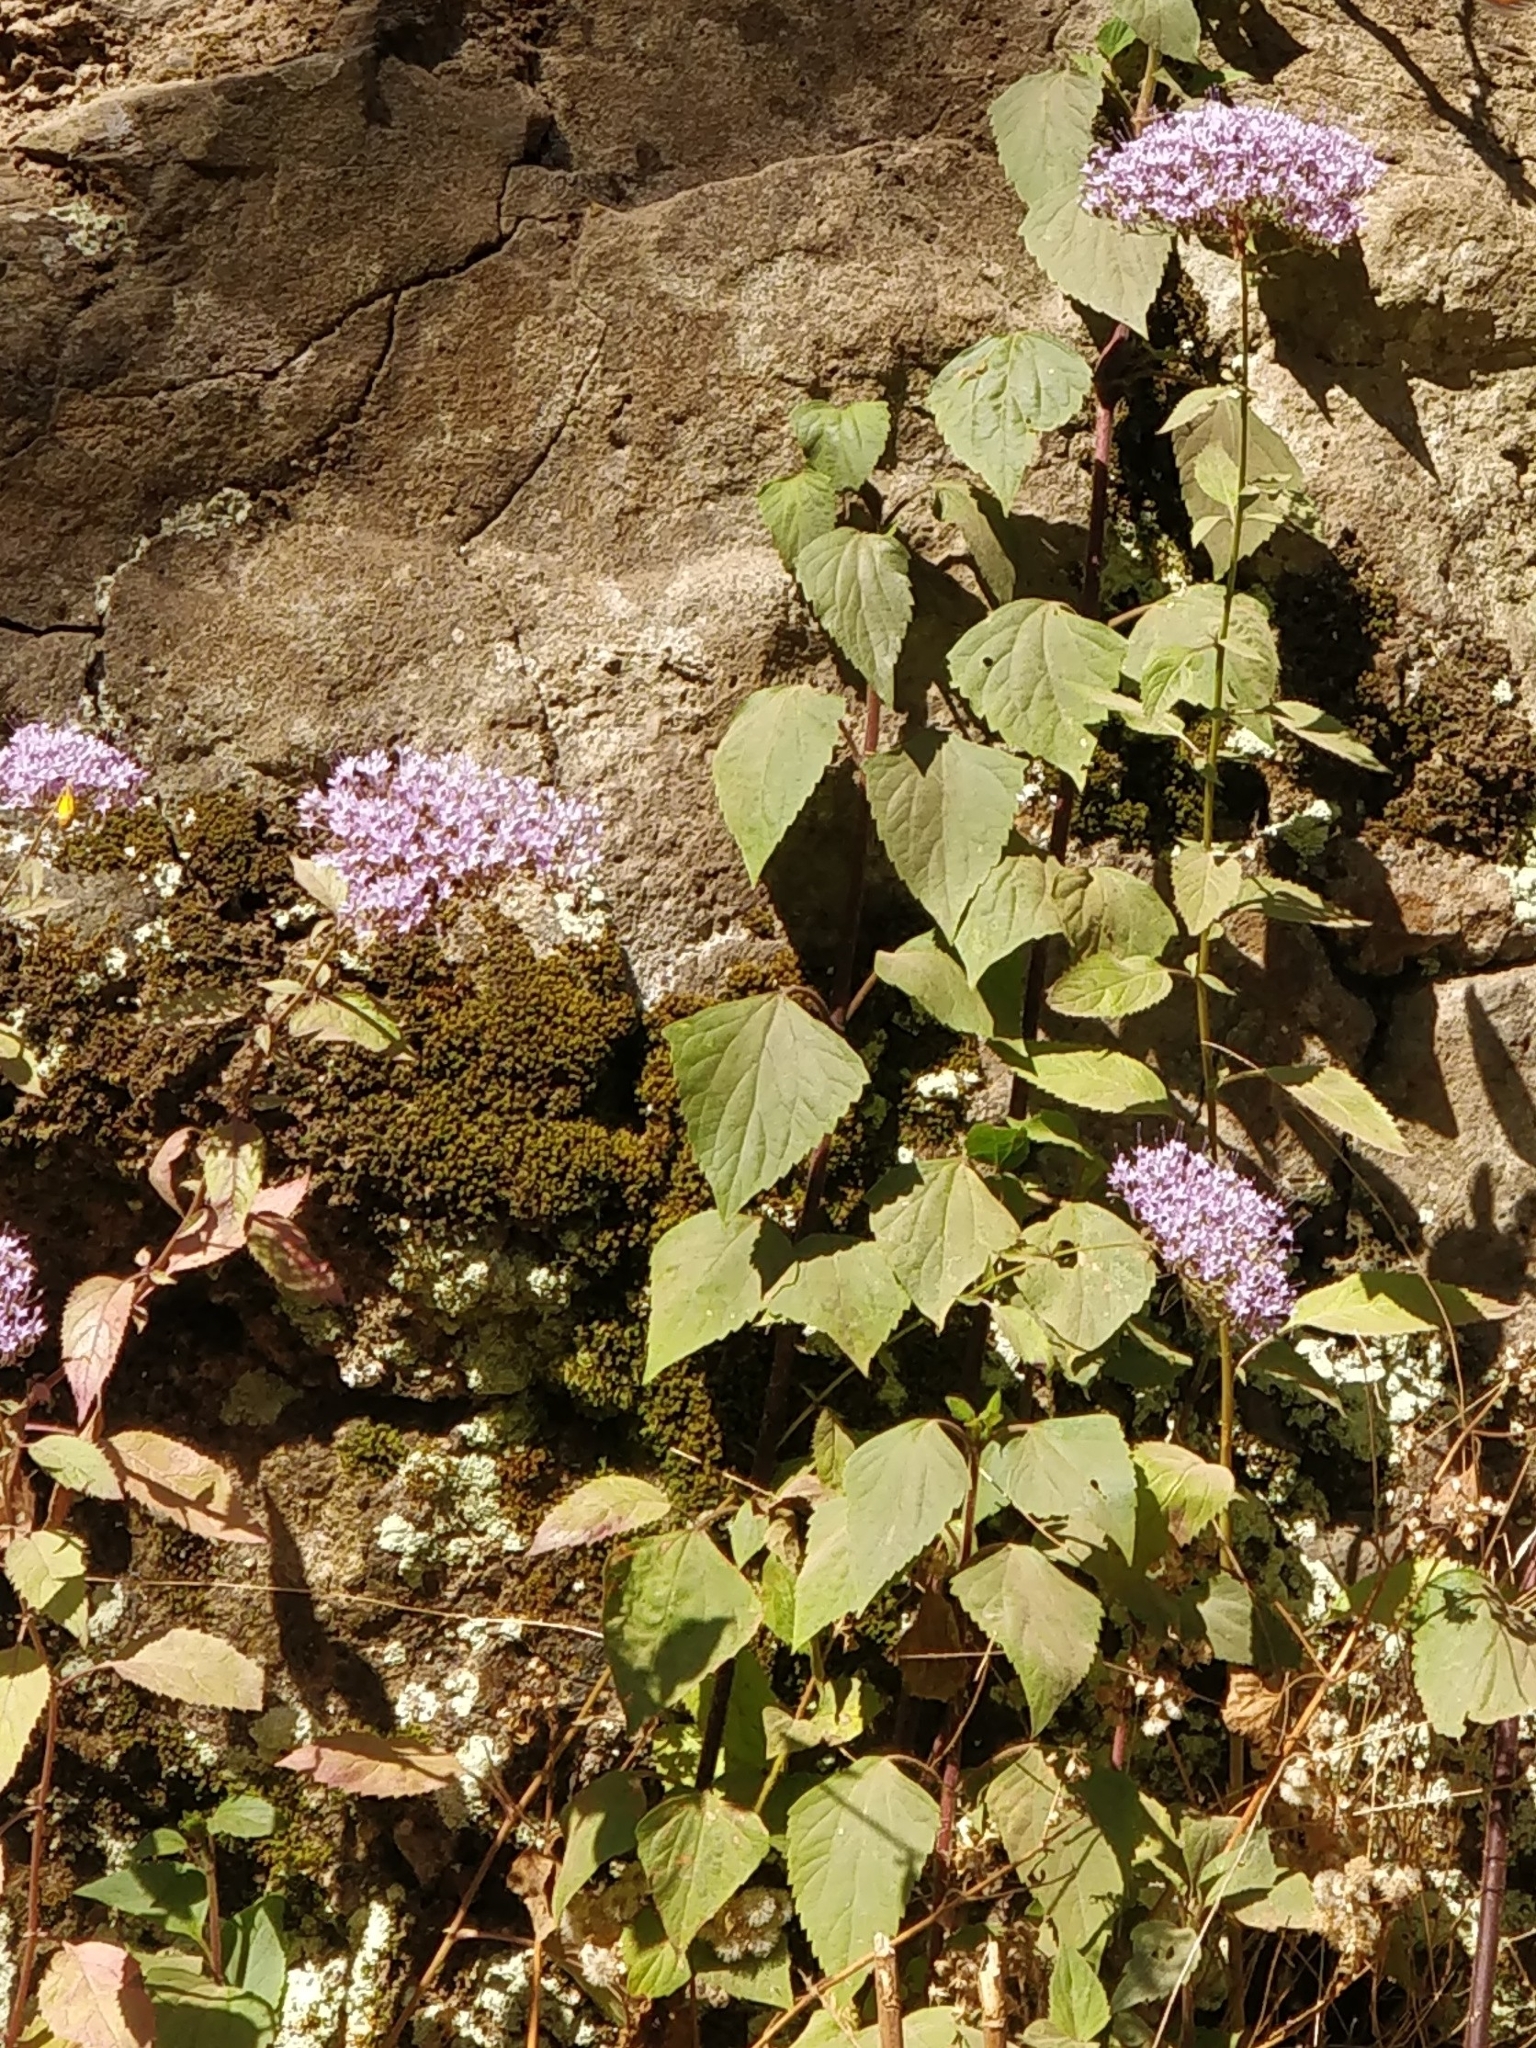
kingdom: Plantae
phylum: Tracheophyta
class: Magnoliopsida
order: Asterales
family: Campanulaceae
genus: Trachelium
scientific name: Trachelium caeruleum
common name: Throatwort
